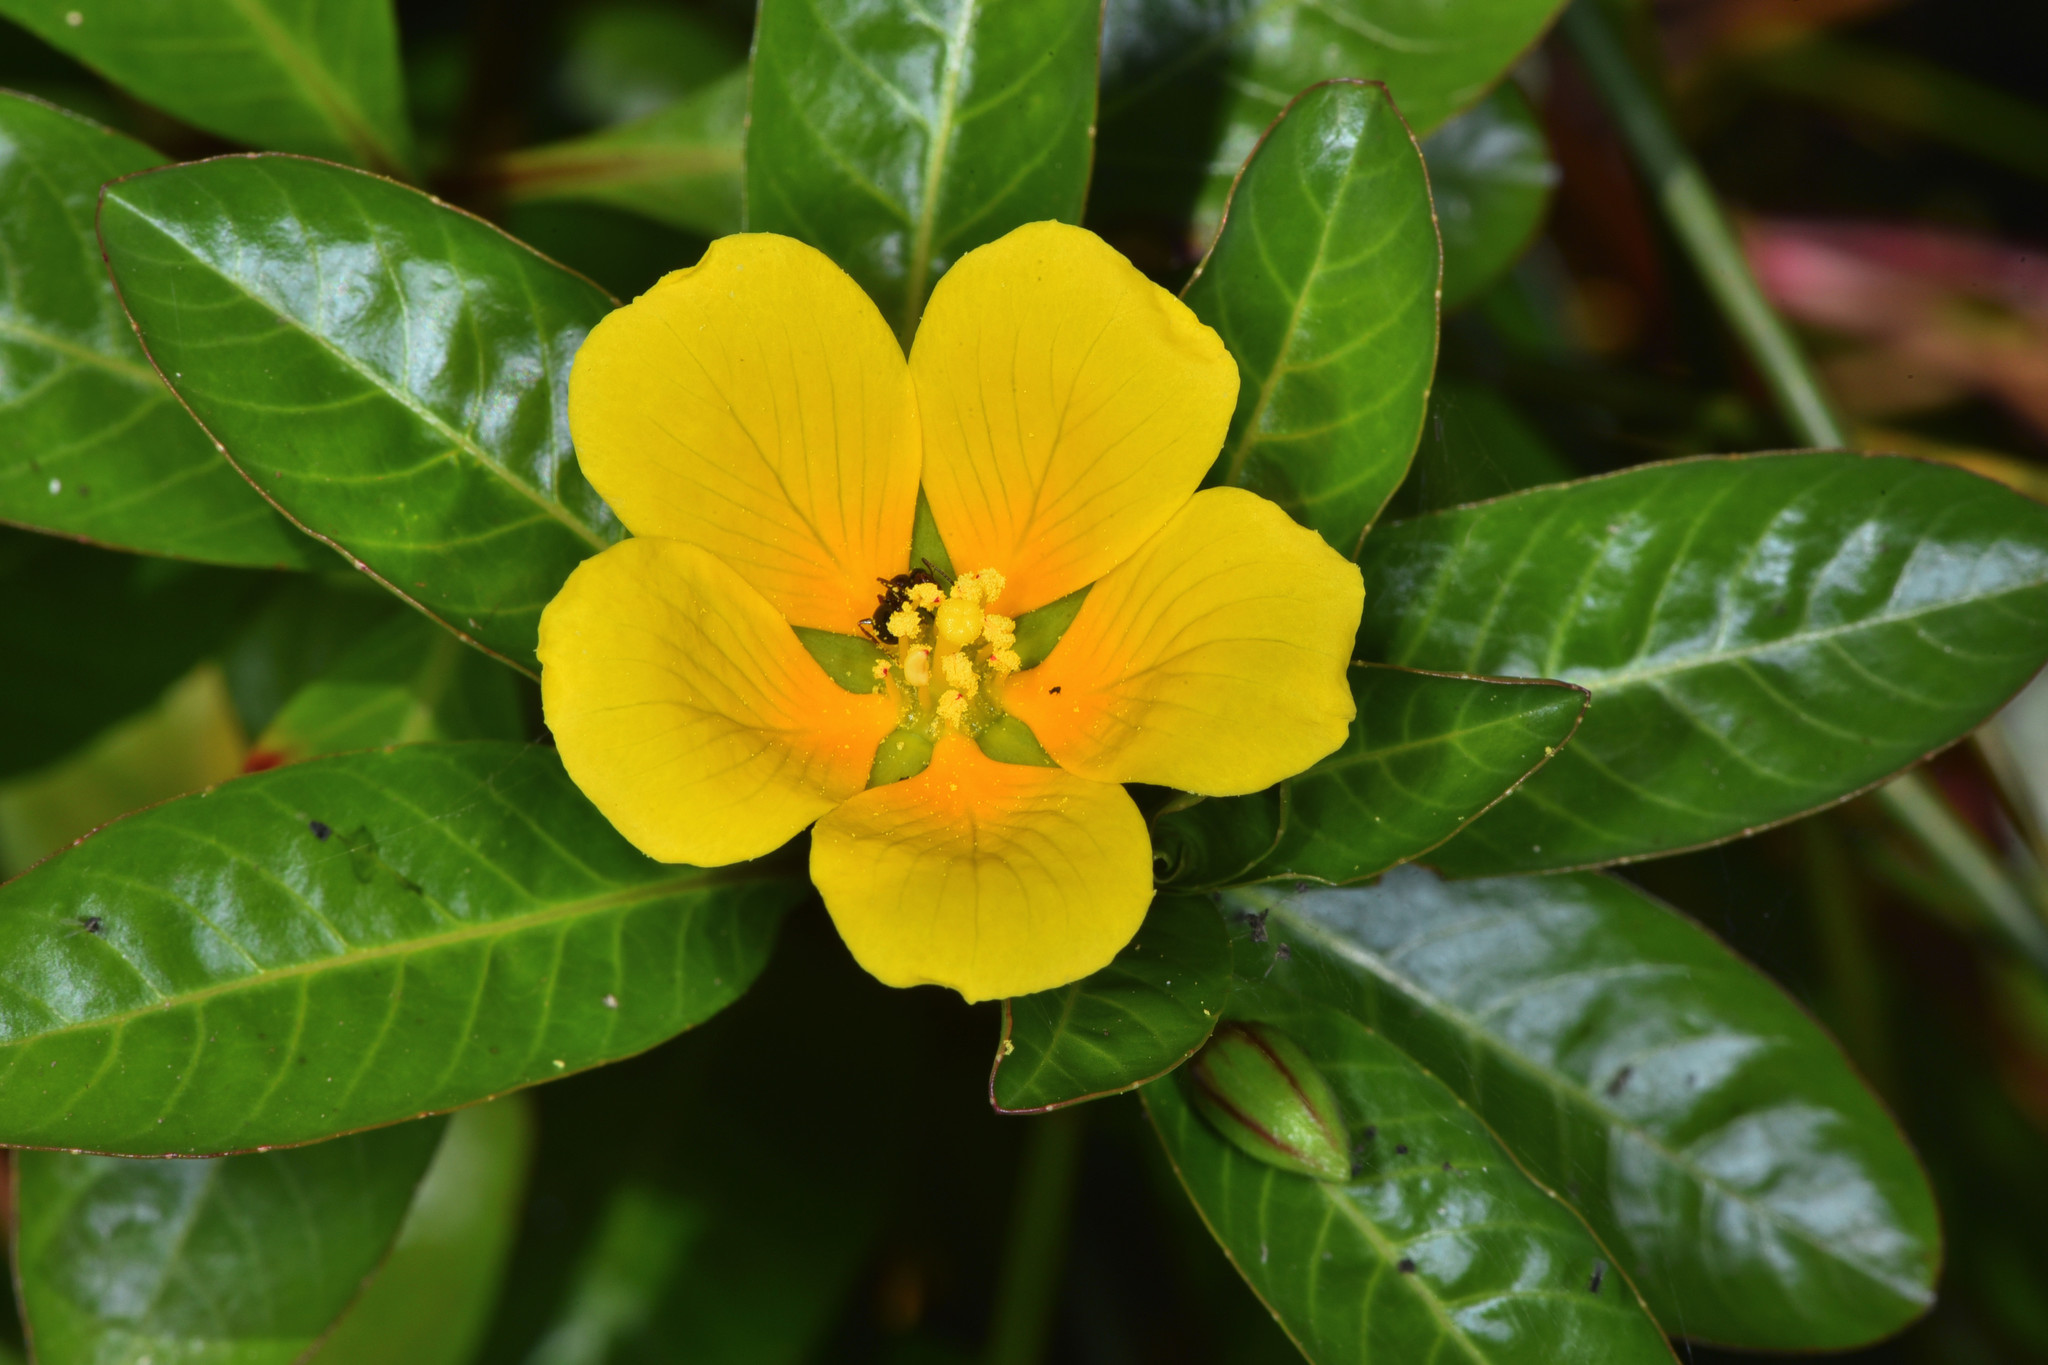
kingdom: Plantae
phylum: Tracheophyta
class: Magnoliopsida
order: Myrtales
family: Onagraceae
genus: Ludwigia
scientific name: Ludwigia peploides
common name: Floating primrose-willow
